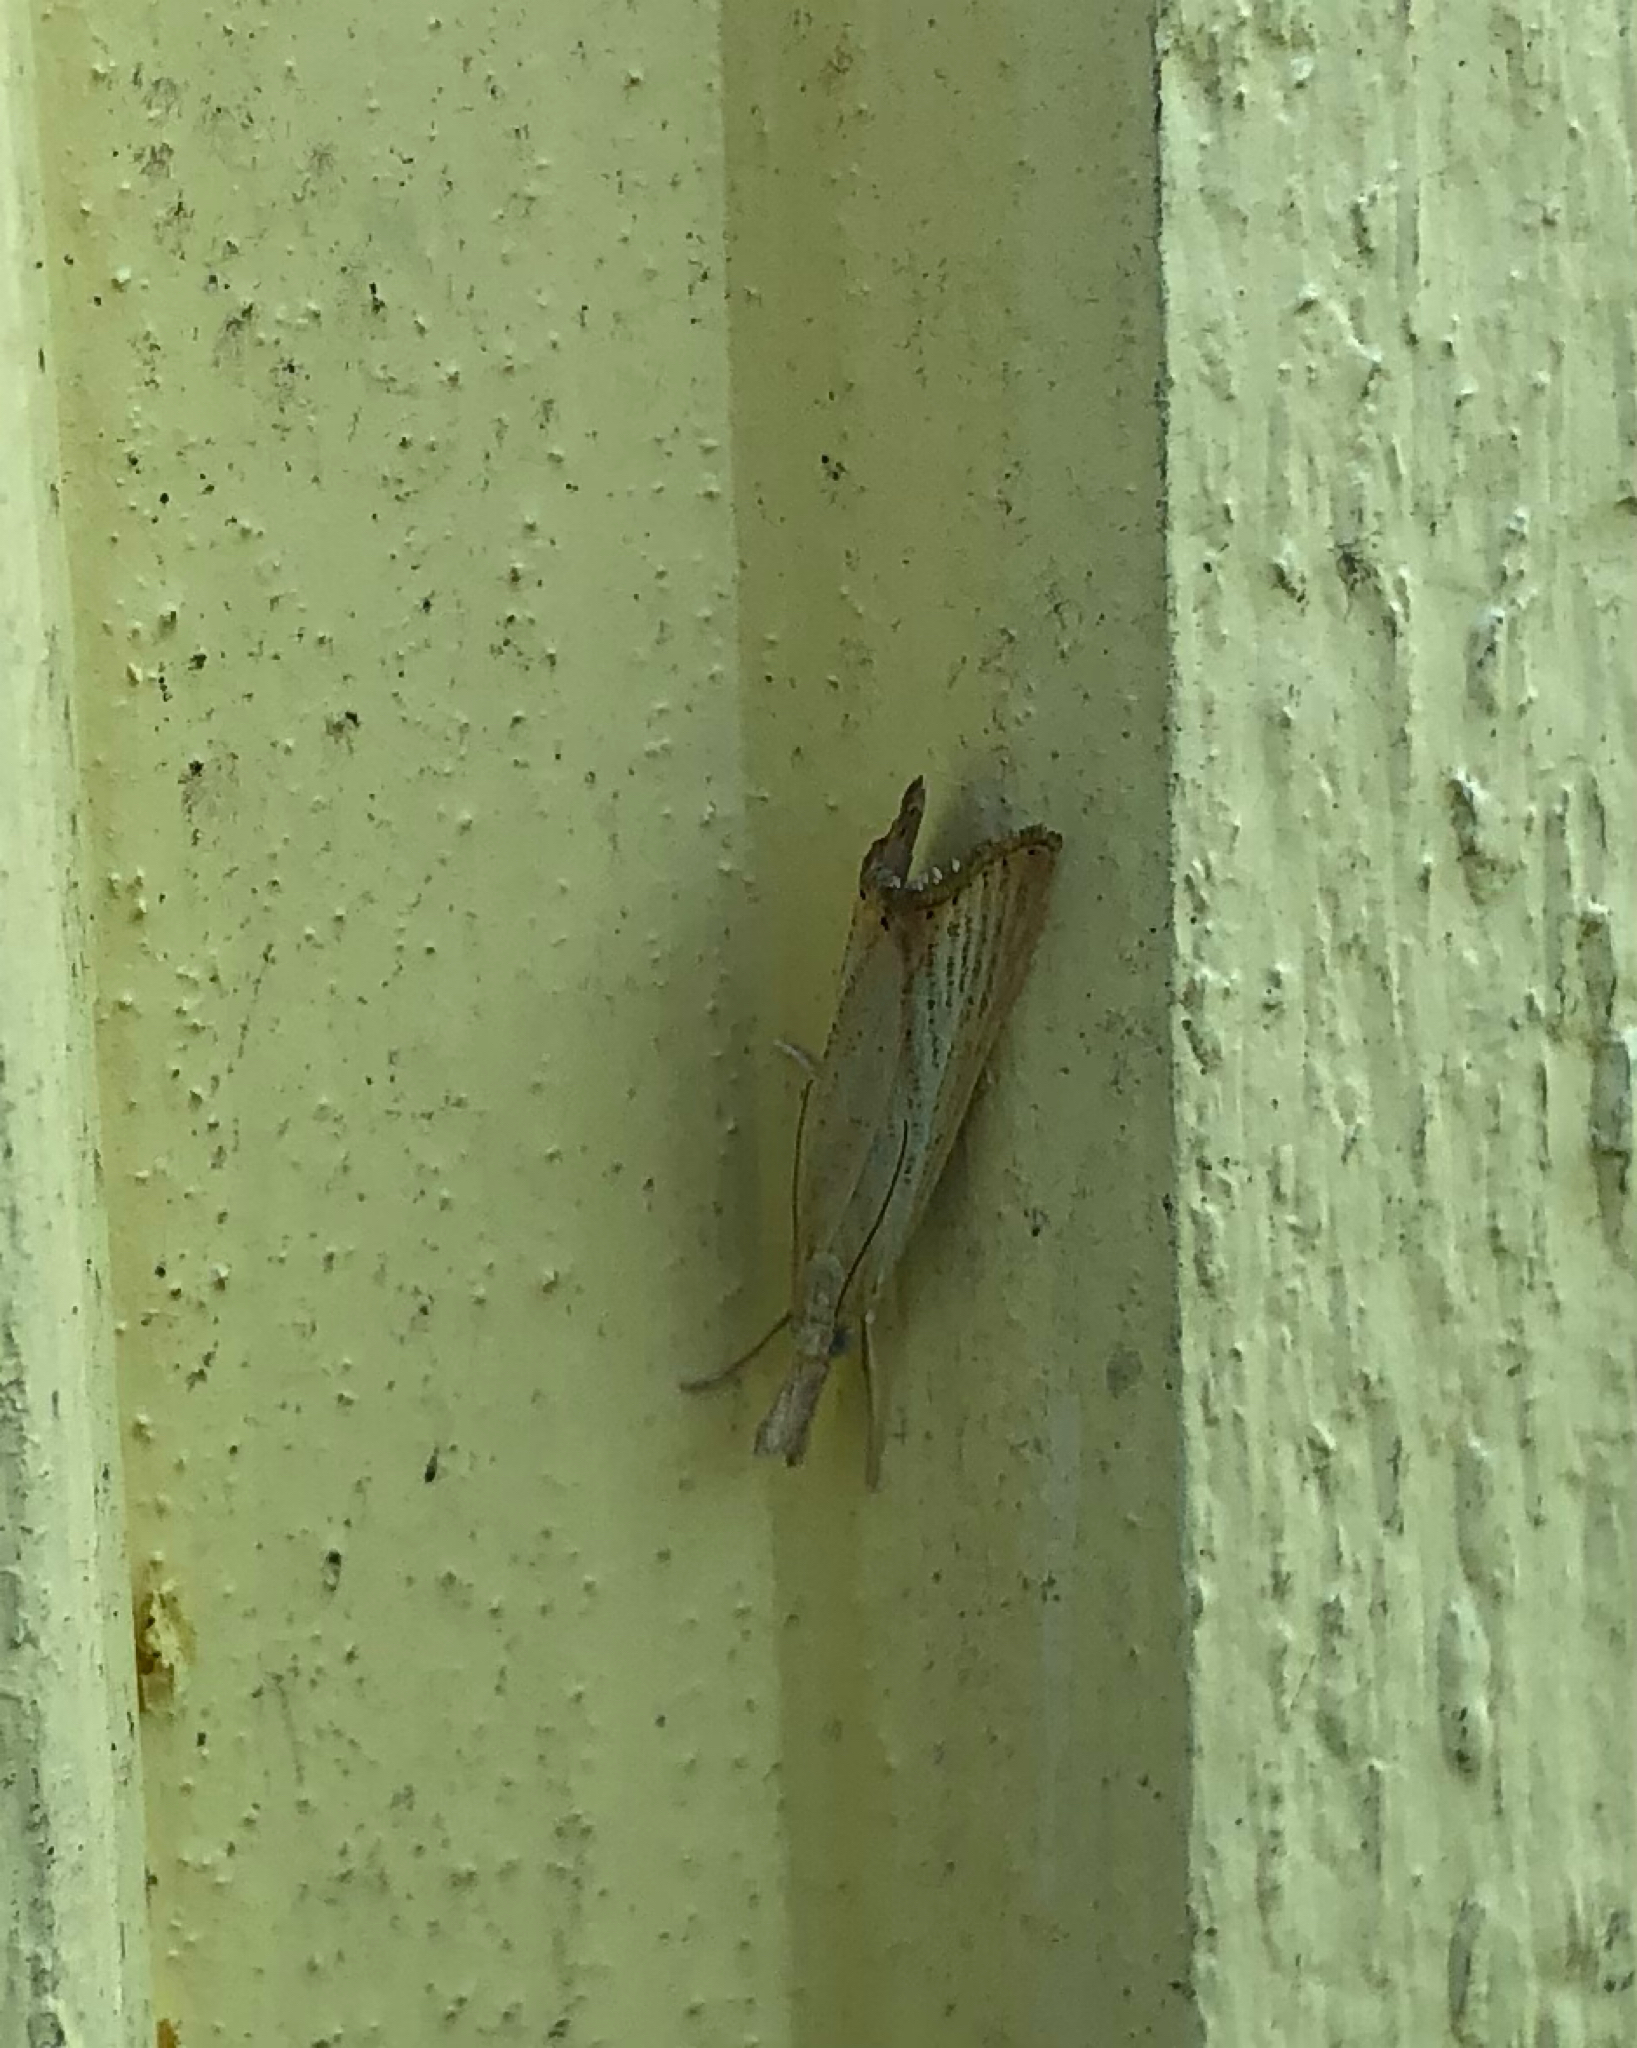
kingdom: Animalia
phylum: Arthropoda
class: Insecta
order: Lepidoptera
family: Crambidae
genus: Agriphila
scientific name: Agriphila straminella
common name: Straw grass-veneer
